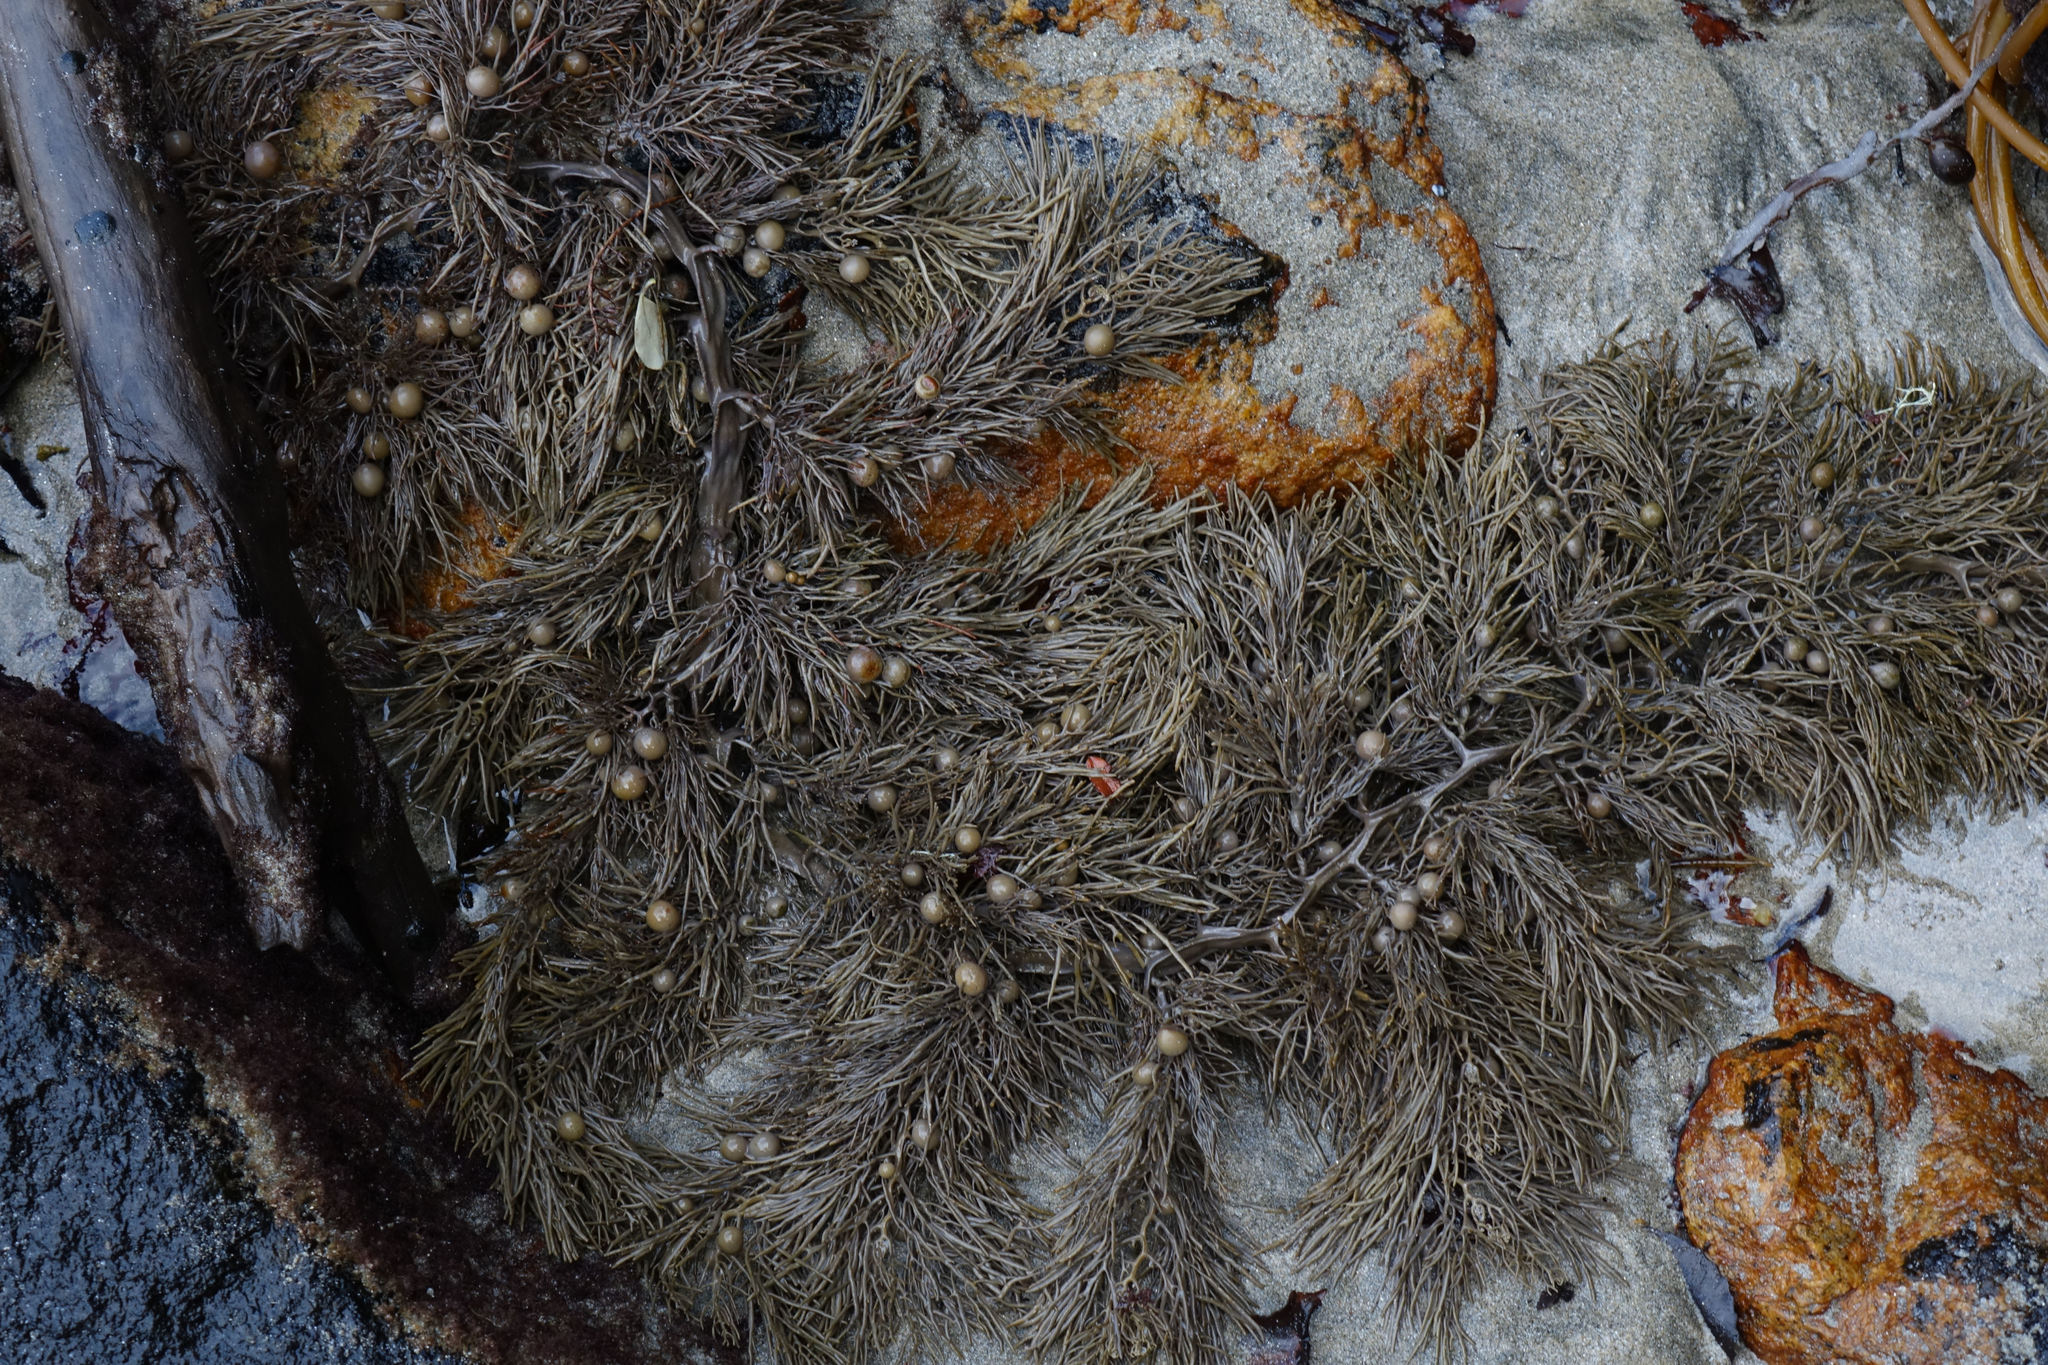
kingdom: Chromista
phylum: Ochrophyta
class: Phaeophyceae
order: Fucales
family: Sargassaceae
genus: Cystophora
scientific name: Cystophora retroflexa
